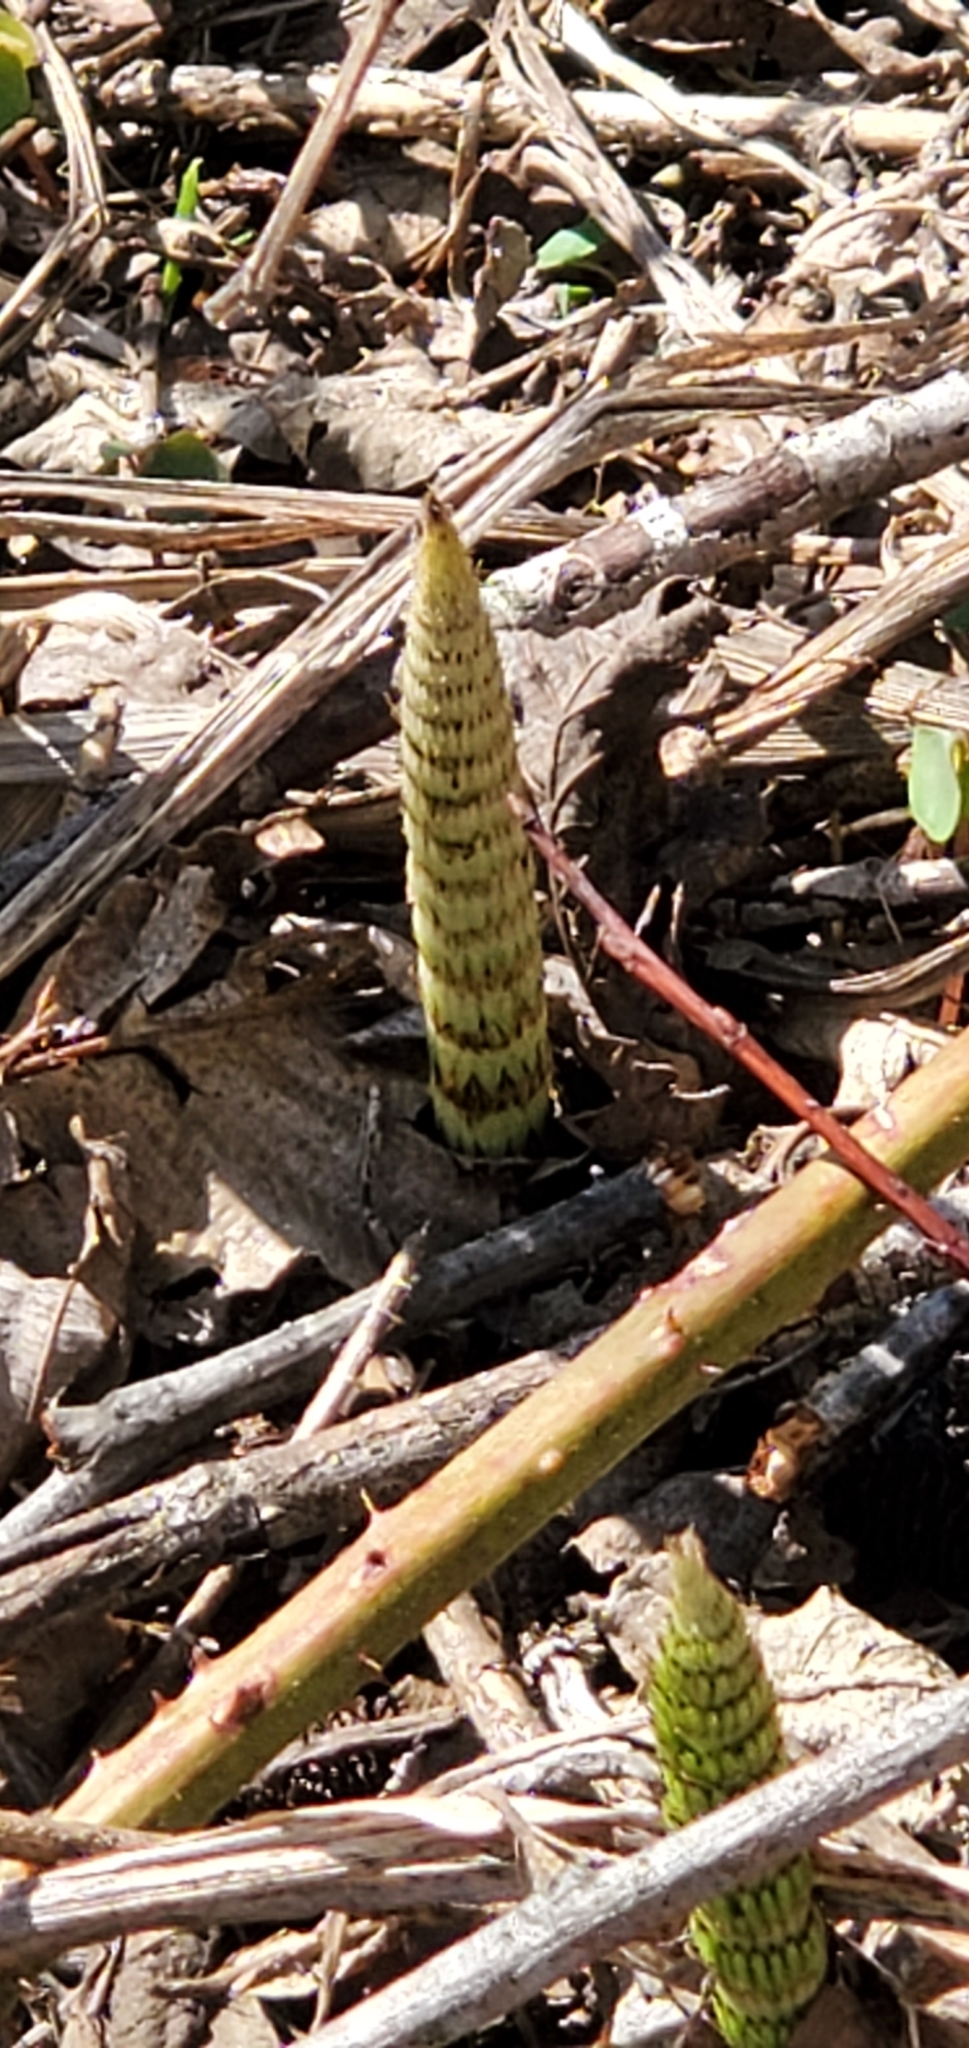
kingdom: Plantae
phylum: Tracheophyta
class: Polypodiopsida
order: Equisetales
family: Equisetaceae
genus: Equisetum
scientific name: Equisetum braunii
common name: Braun's horsetail
